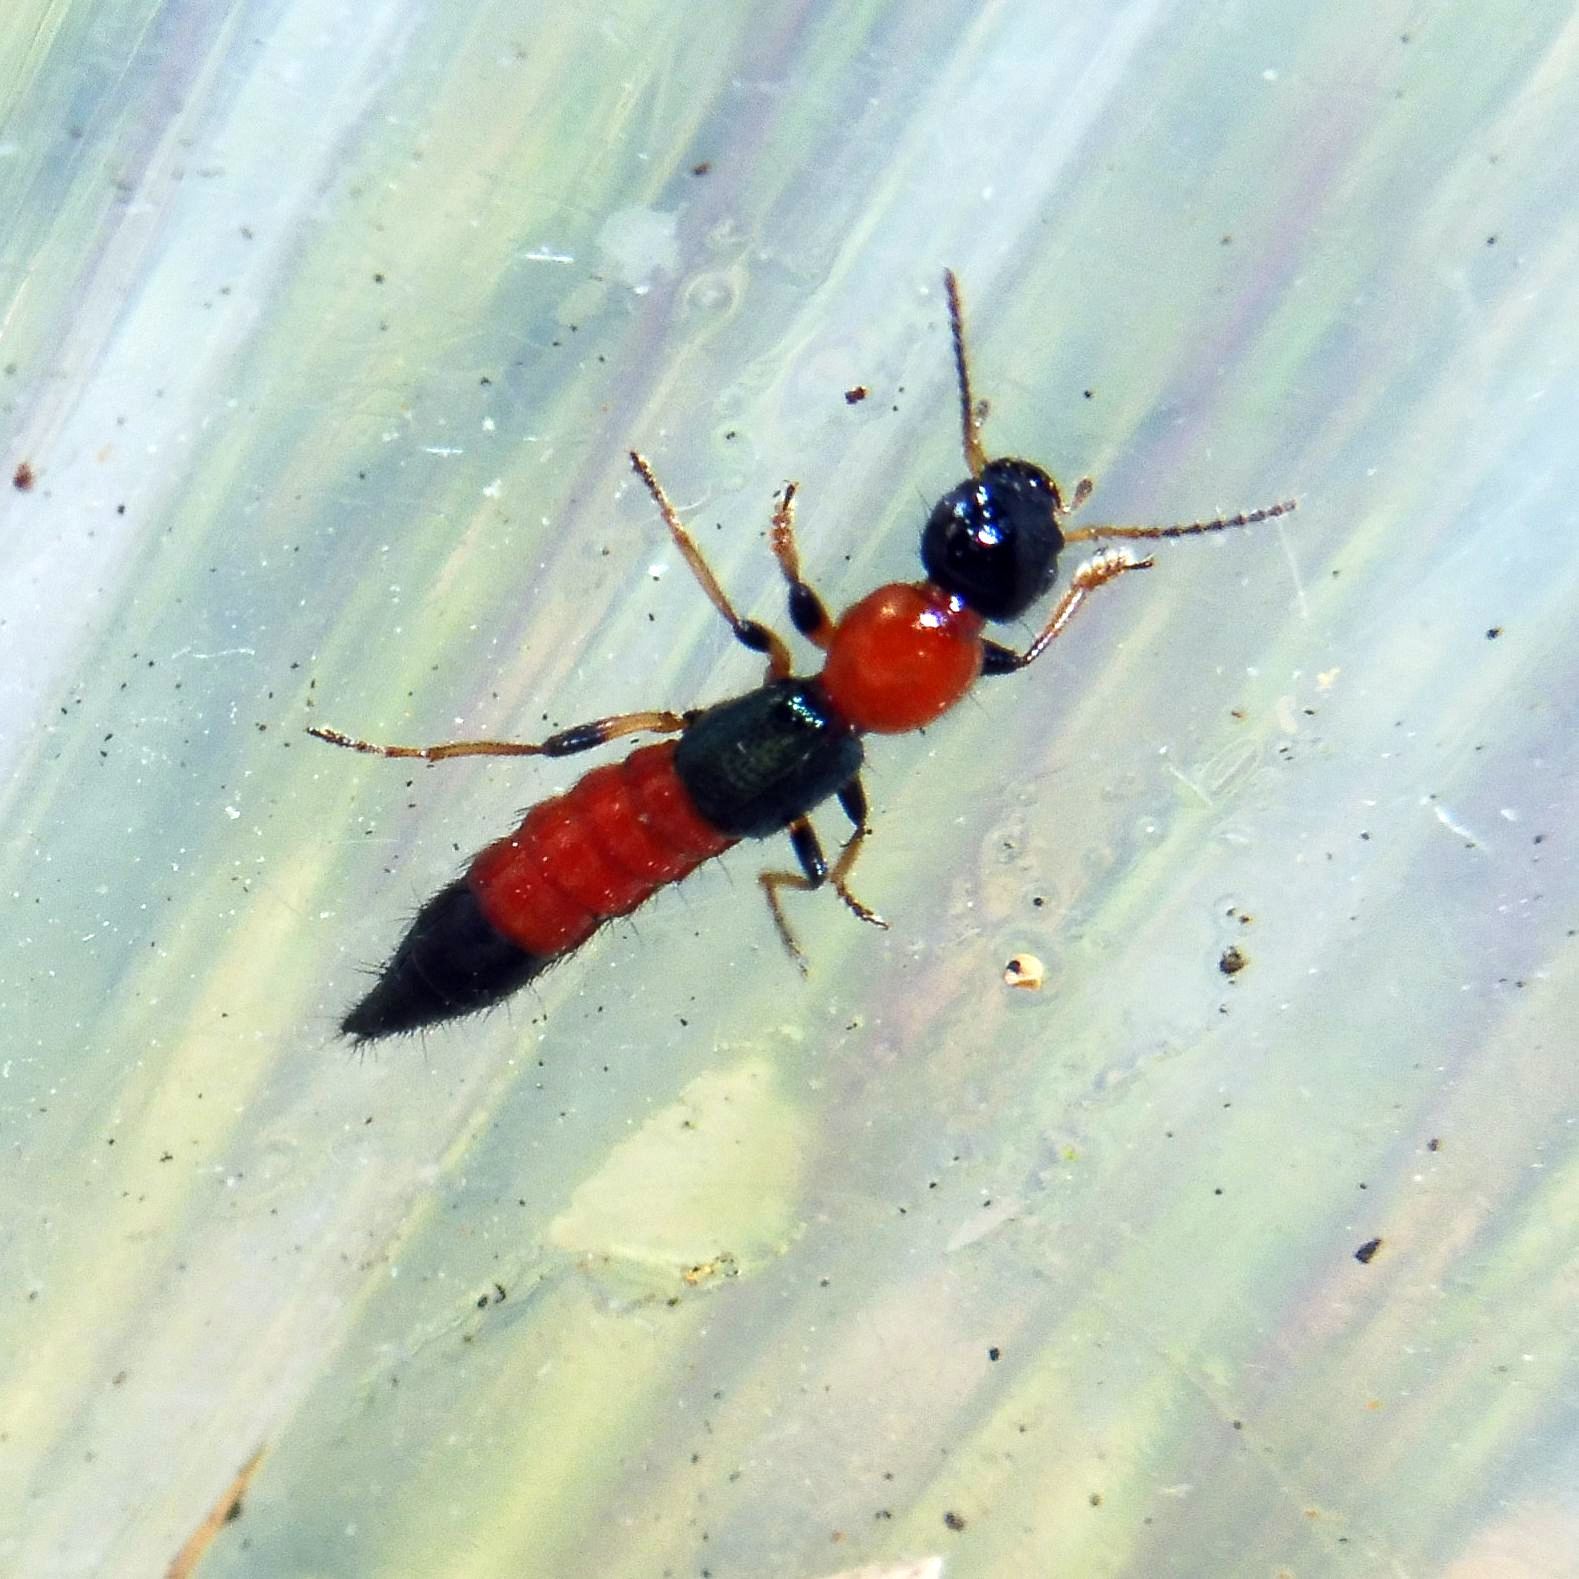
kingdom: Animalia
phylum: Arthropoda
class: Insecta
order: Coleoptera
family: Staphylinidae
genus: Paederus
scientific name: Paederus littoralis
